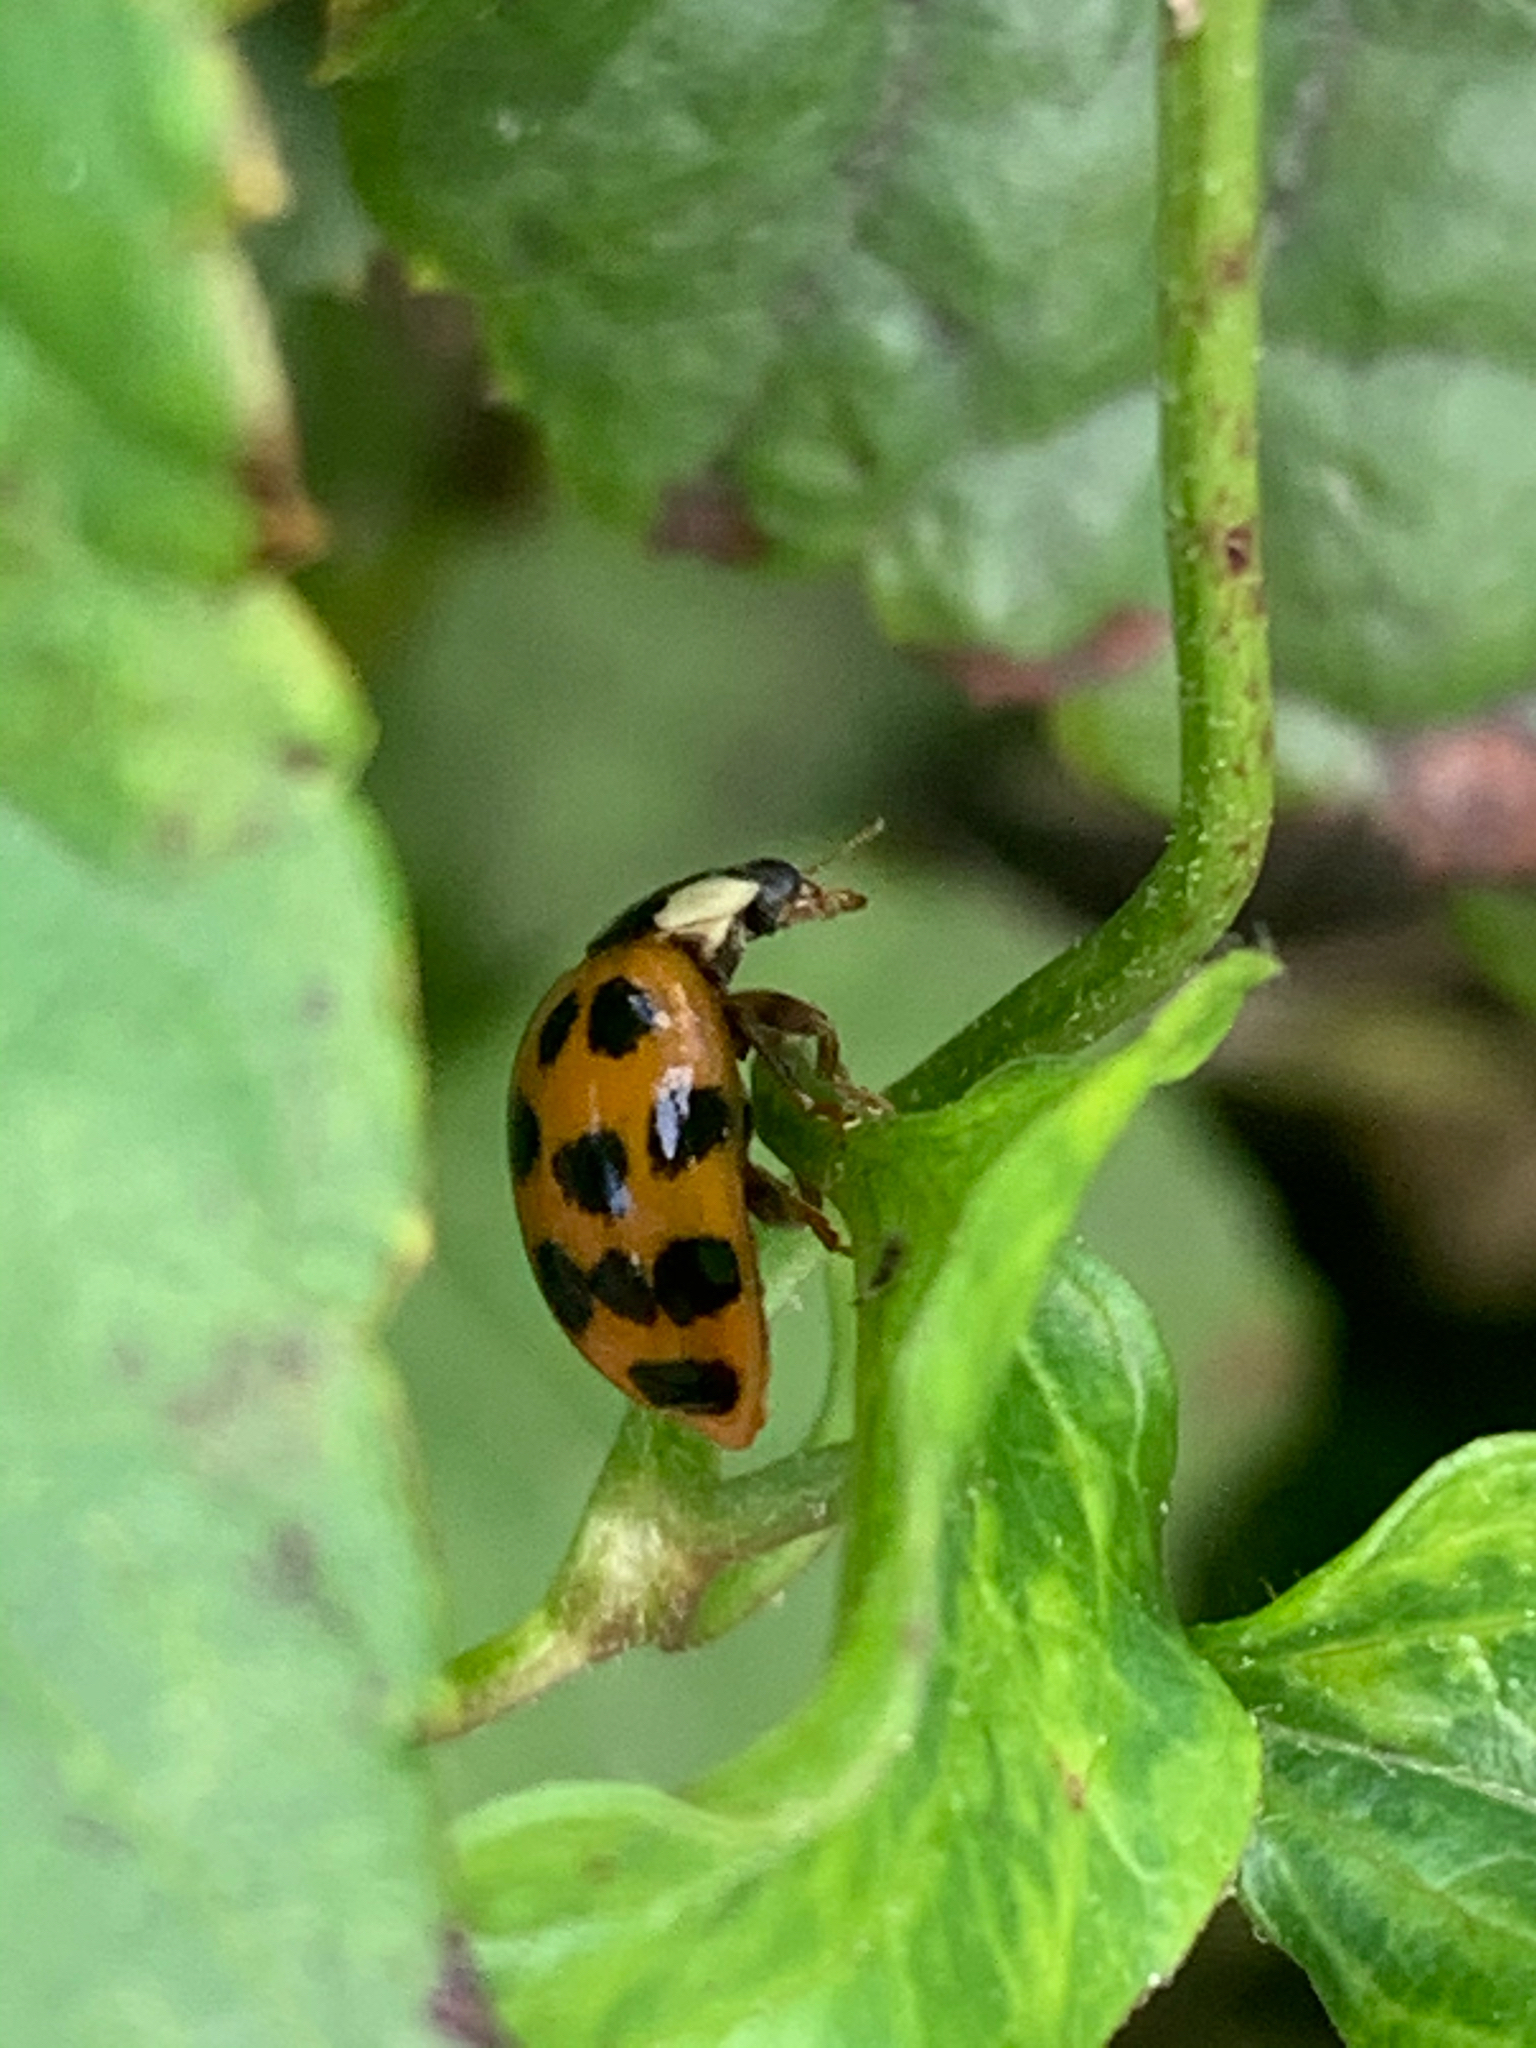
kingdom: Animalia
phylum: Arthropoda
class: Insecta
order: Coleoptera
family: Coccinellidae
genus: Harmonia
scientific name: Harmonia axyridis
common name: Harlequin ladybird
